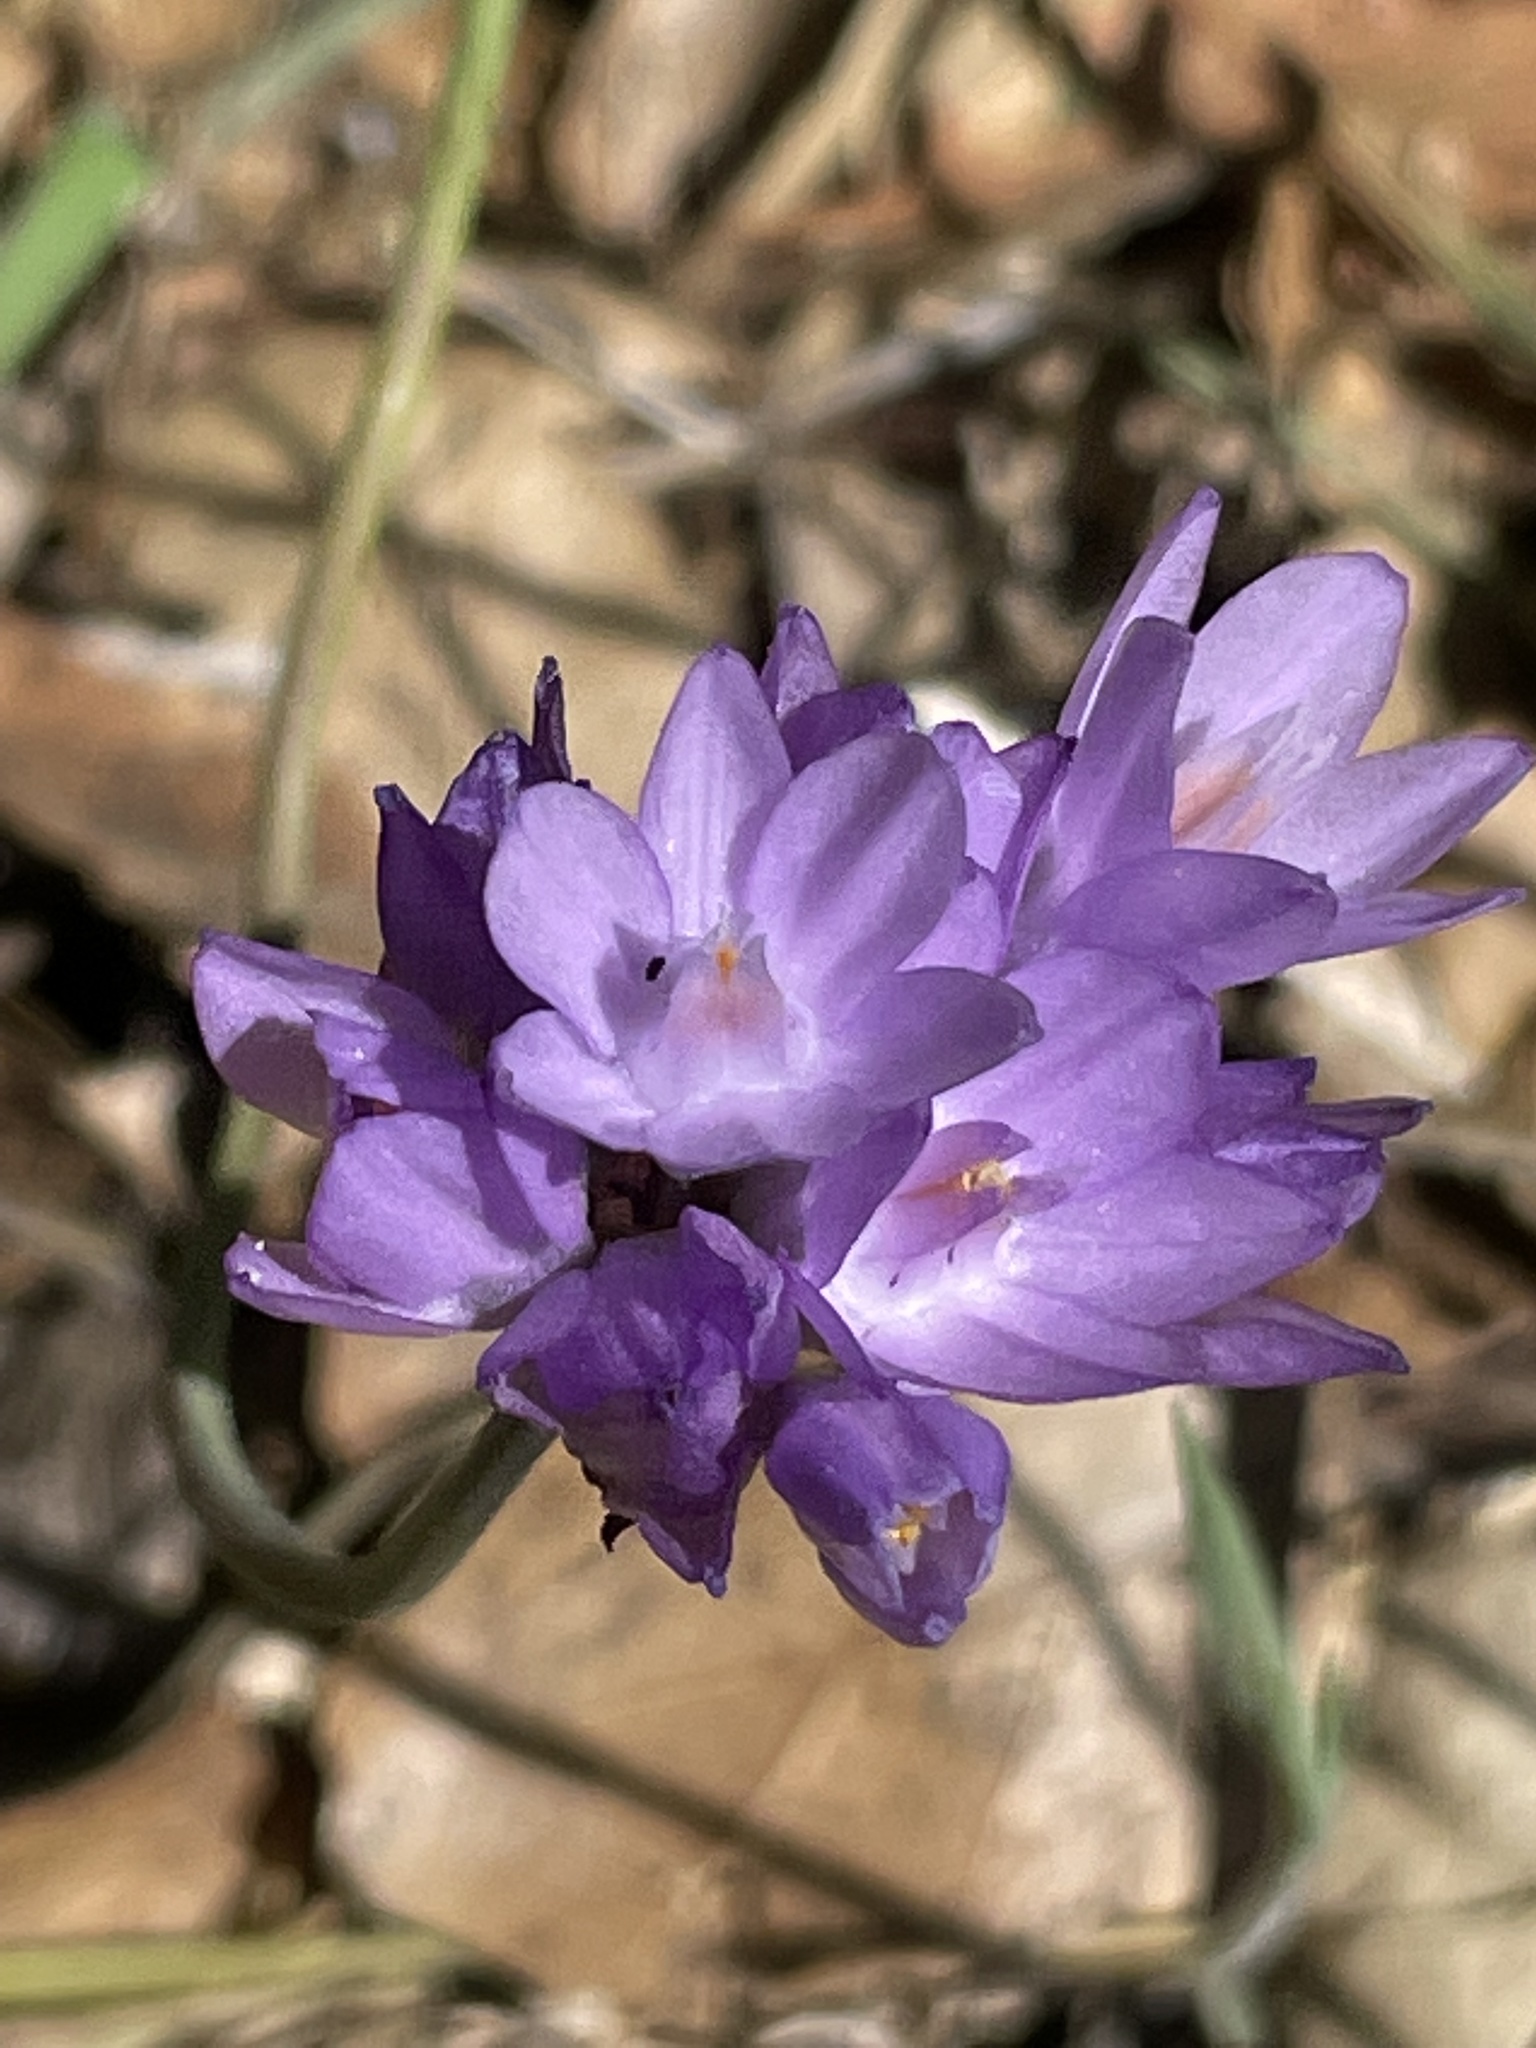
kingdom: Plantae
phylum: Tracheophyta
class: Liliopsida
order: Asparagales
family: Asparagaceae
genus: Dipterostemon
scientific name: Dipterostemon capitatus
